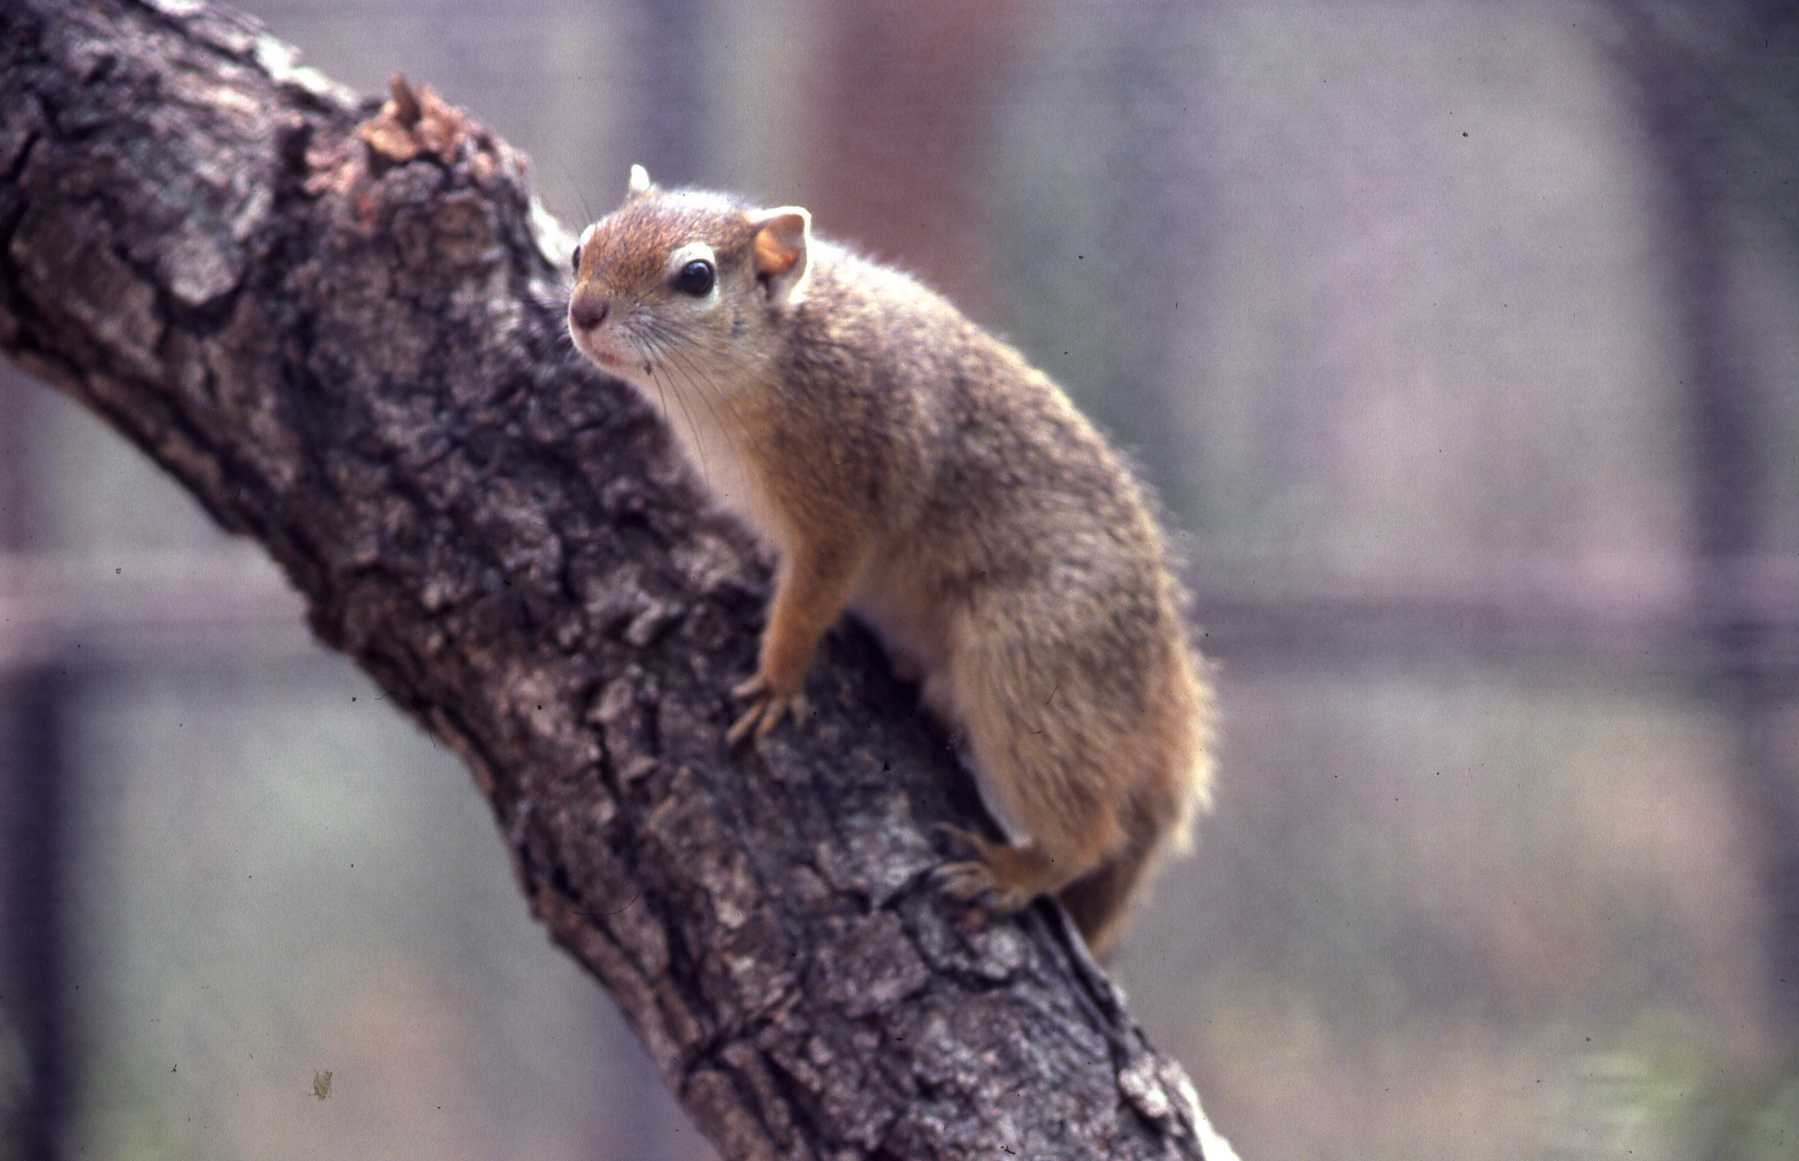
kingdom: Animalia
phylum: Chordata
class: Mammalia
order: Rodentia
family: Sciuridae
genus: Paraxerus
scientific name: Paraxerus cepapi
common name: Smith's bush squirrel
